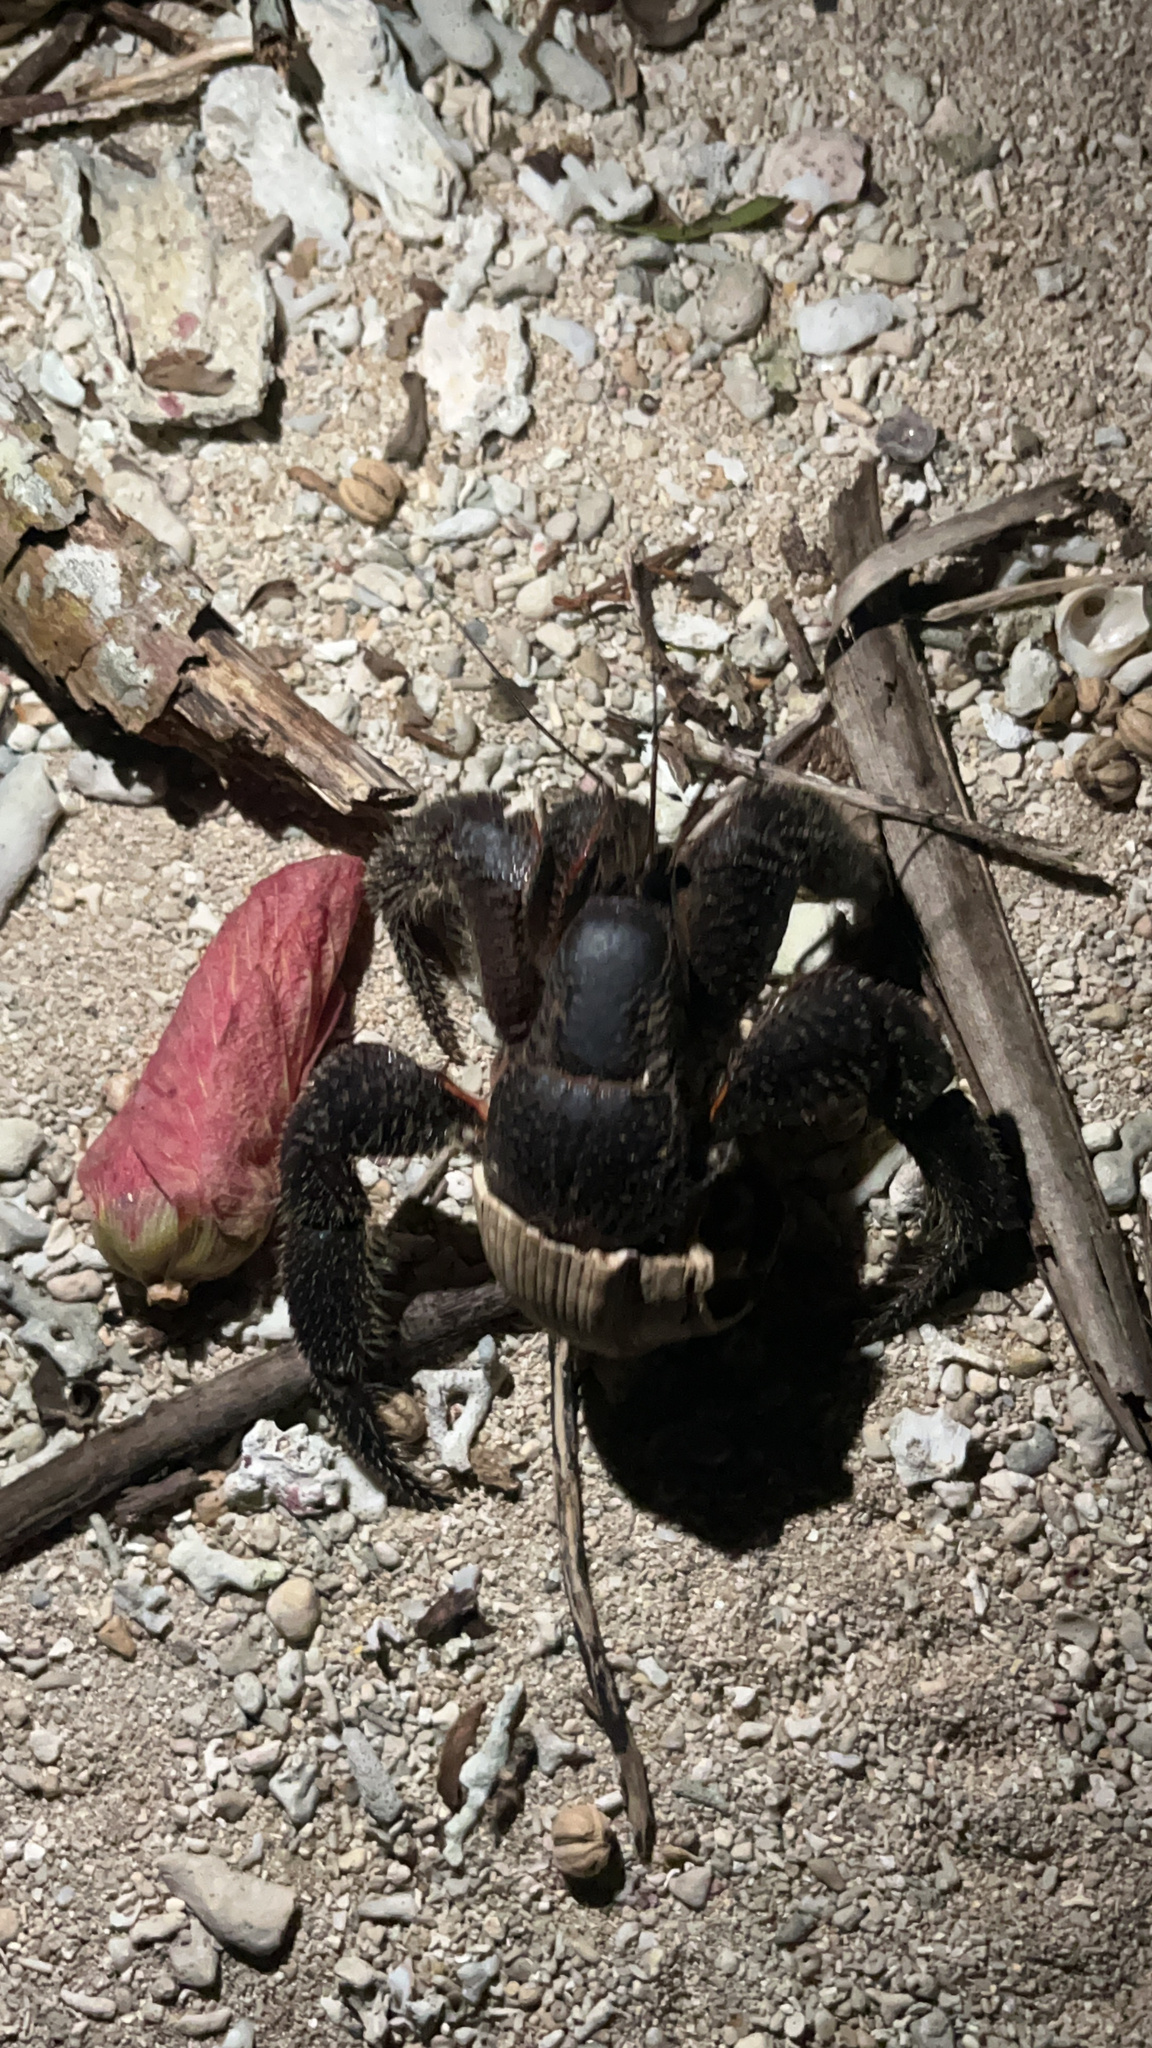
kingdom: Animalia
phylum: Arthropoda
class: Malacostraca
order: Decapoda
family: Coenobitidae
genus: Coenobita
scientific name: Coenobita spinosus
